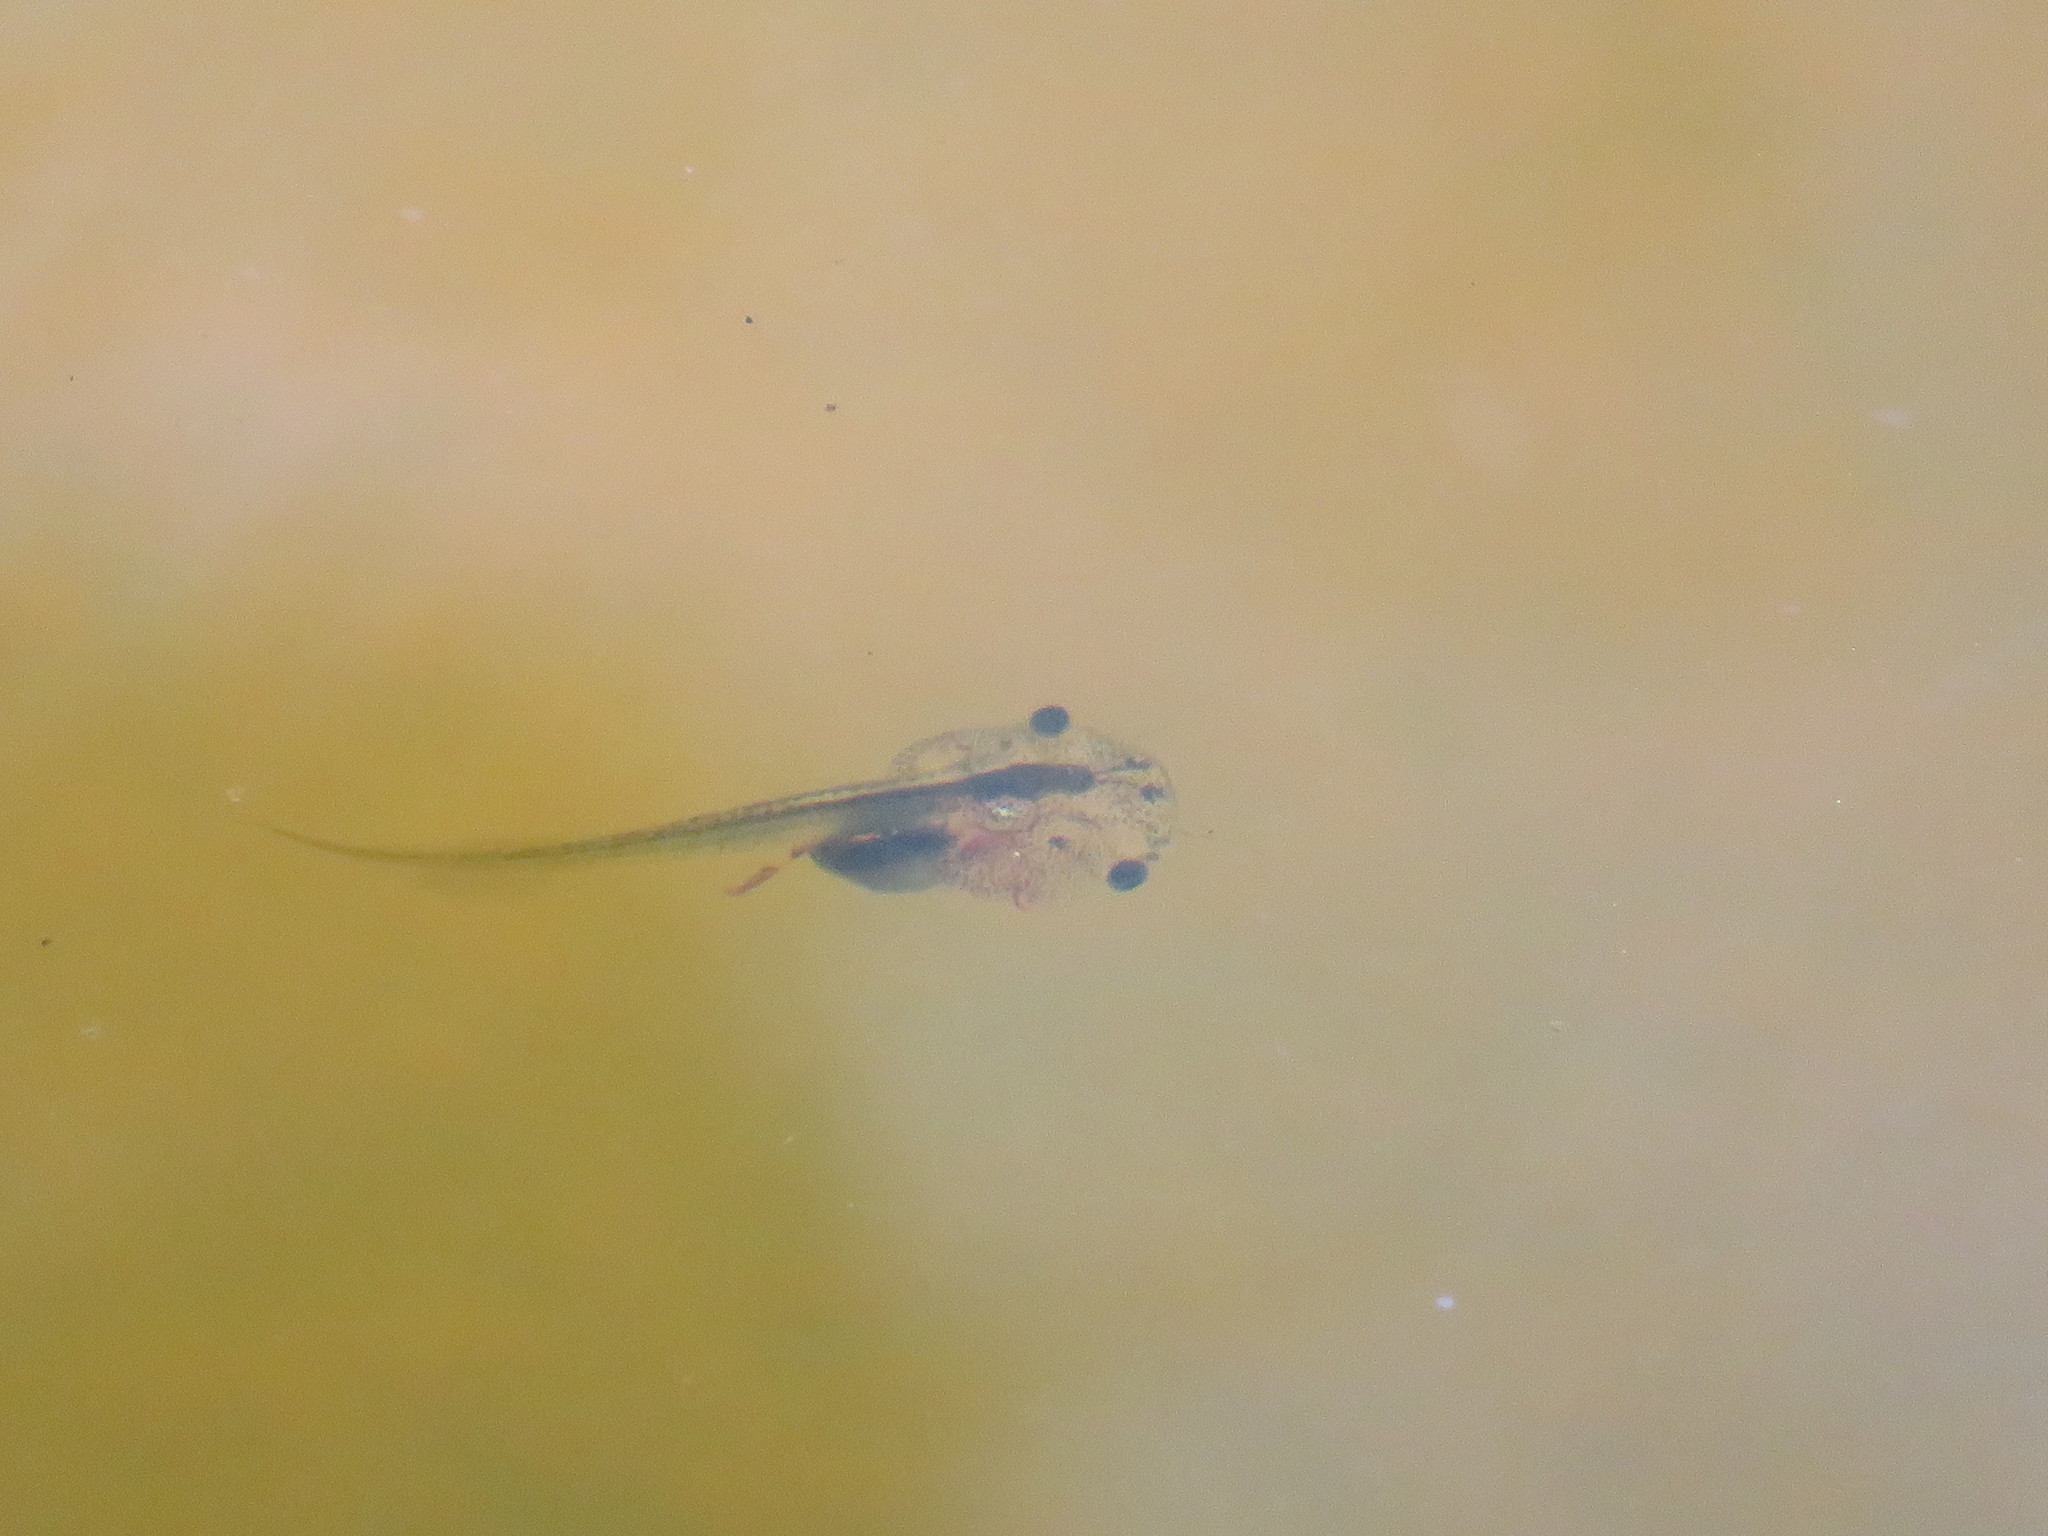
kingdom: Animalia
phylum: Chordata
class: Amphibia
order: Anura
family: Pipidae
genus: Xenopus
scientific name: Xenopus laevis
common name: African clawed frog
